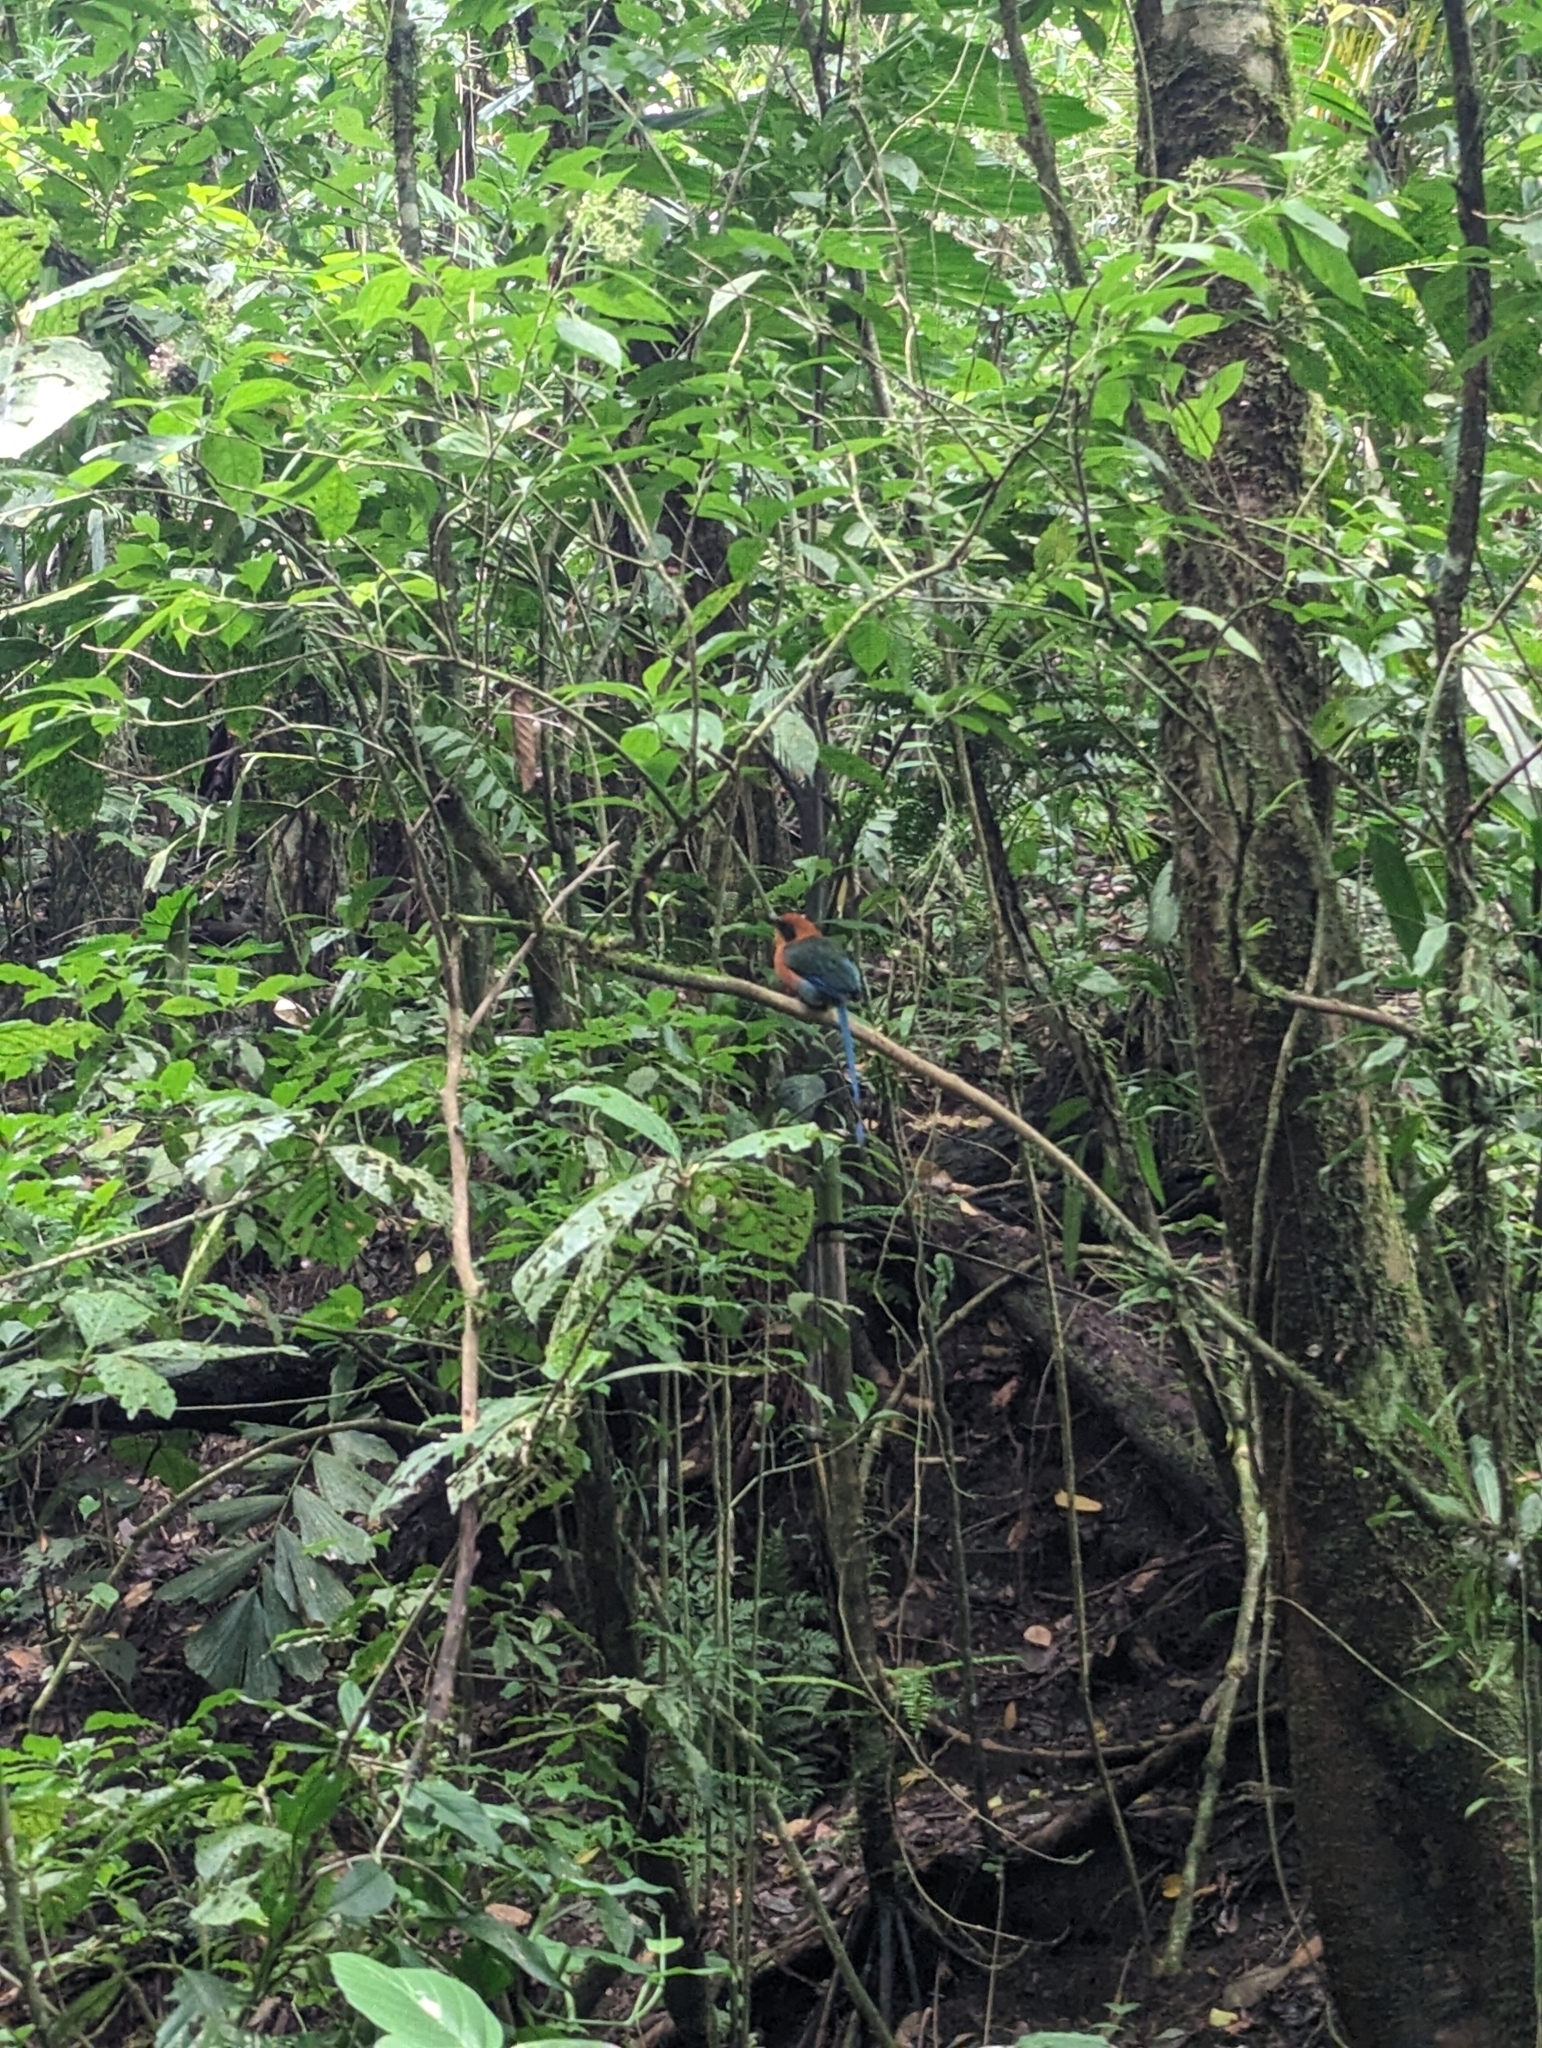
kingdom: Animalia
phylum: Chordata
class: Aves
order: Coraciiformes
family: Momotidae
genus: Baryphthengus
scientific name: Baryphthengus martii
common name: Rufous motmot
